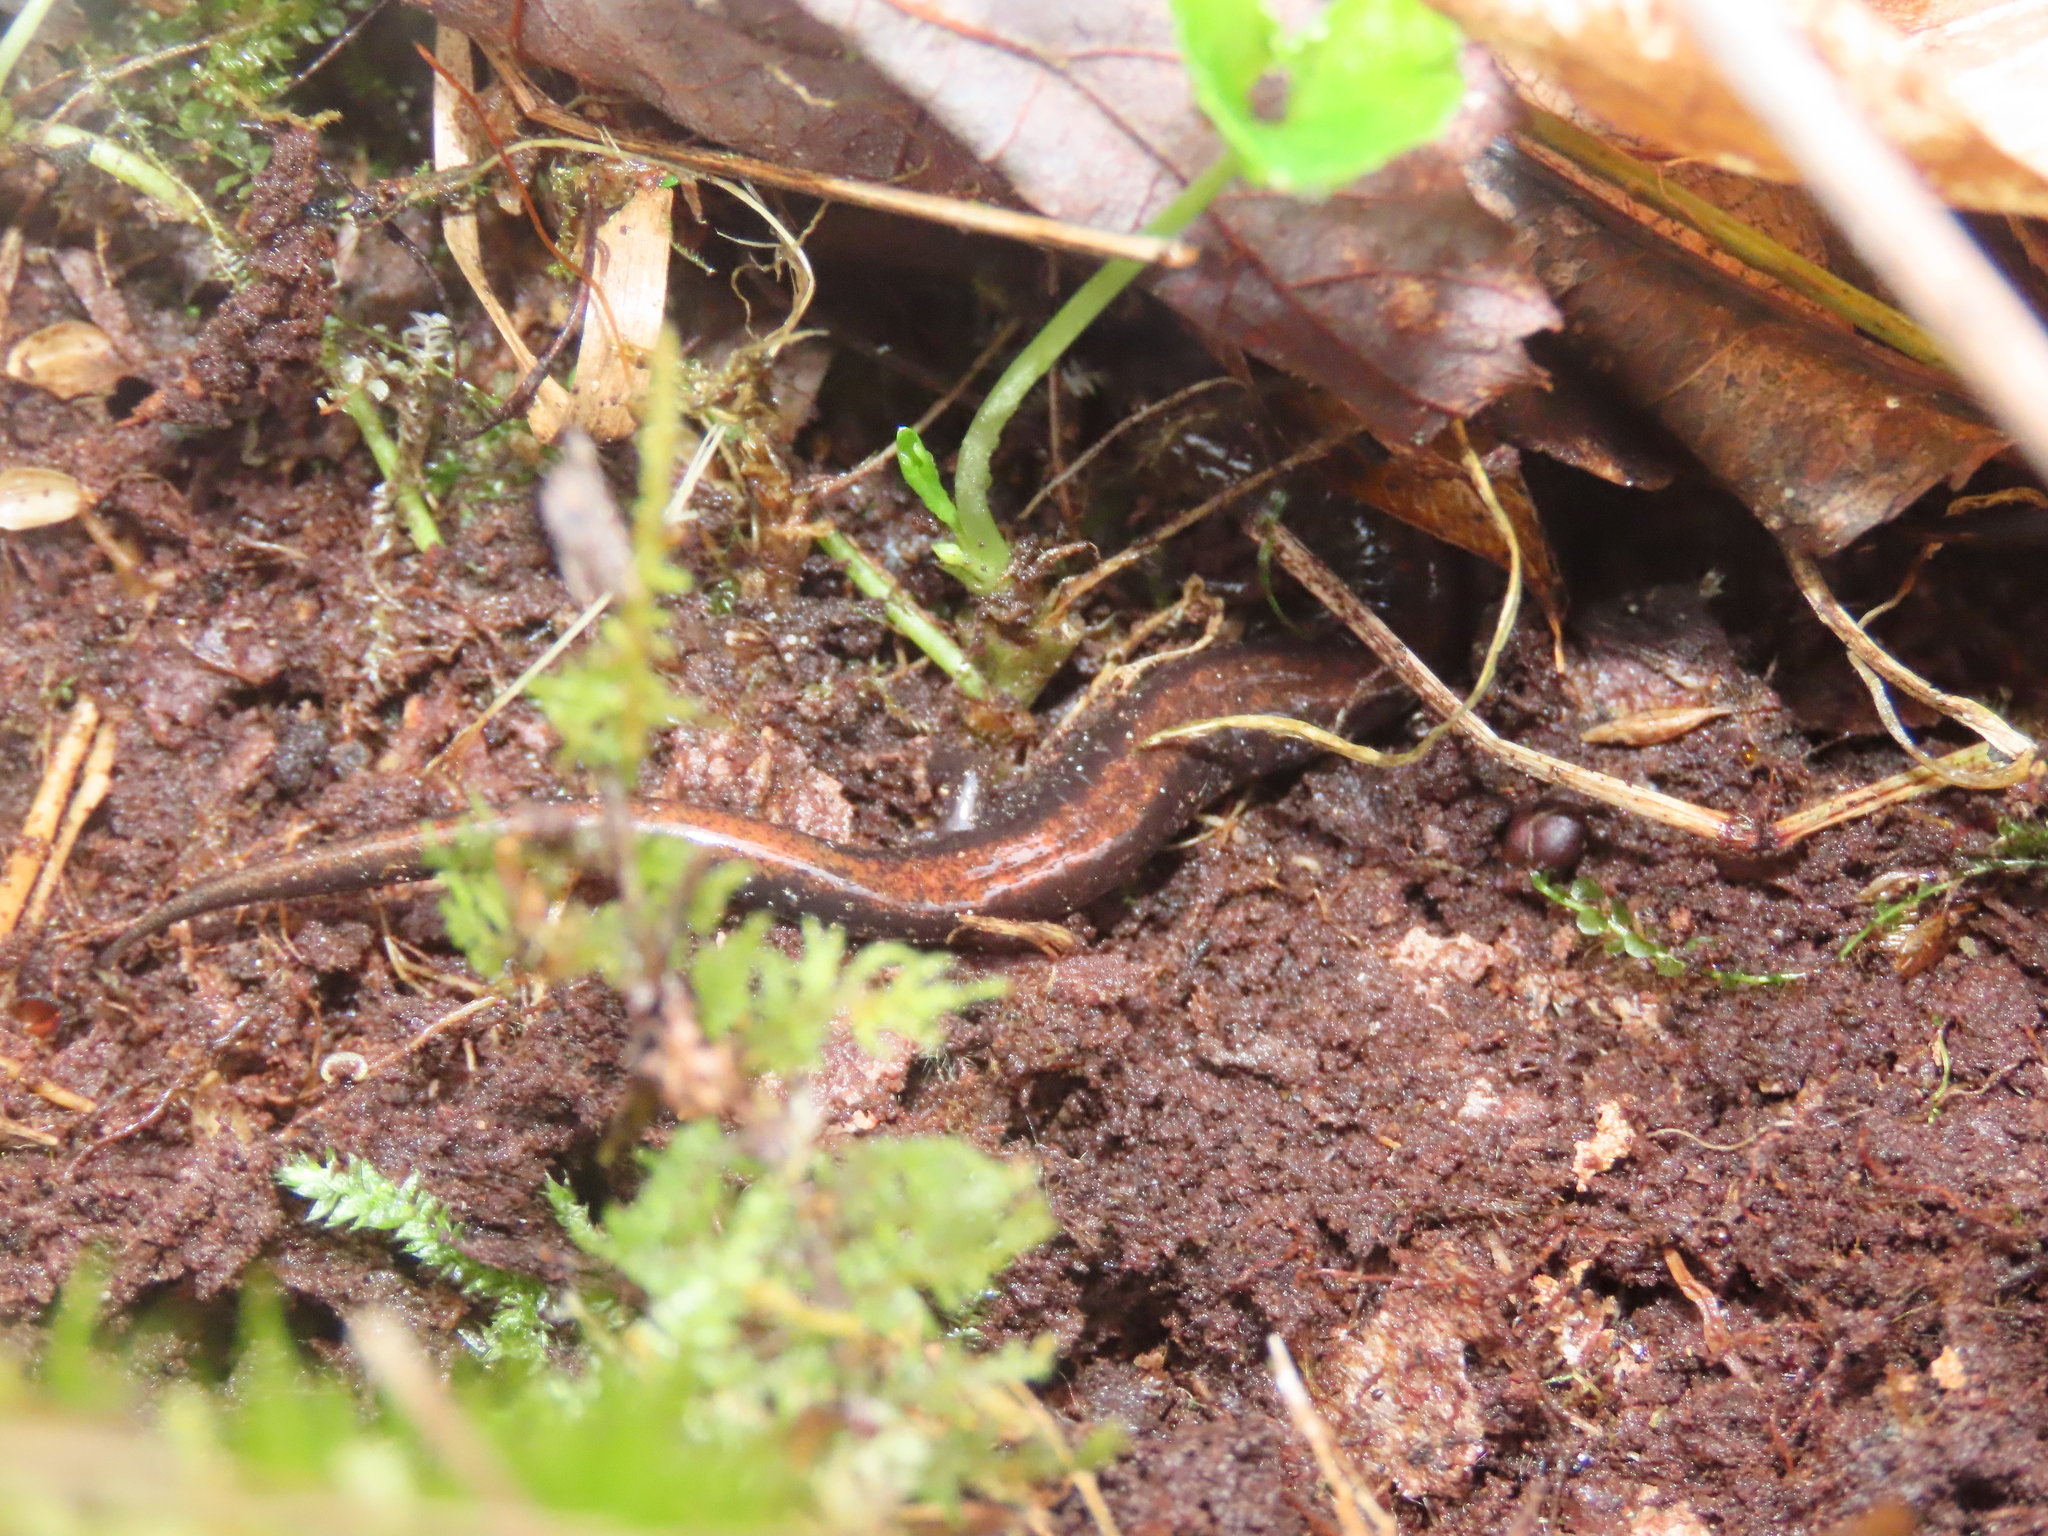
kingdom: Animalia
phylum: Chordata
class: Amphibia
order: Caudata
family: Plethodontidae
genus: Plethodon
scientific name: Plethodon cinereus
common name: Redback salamander
